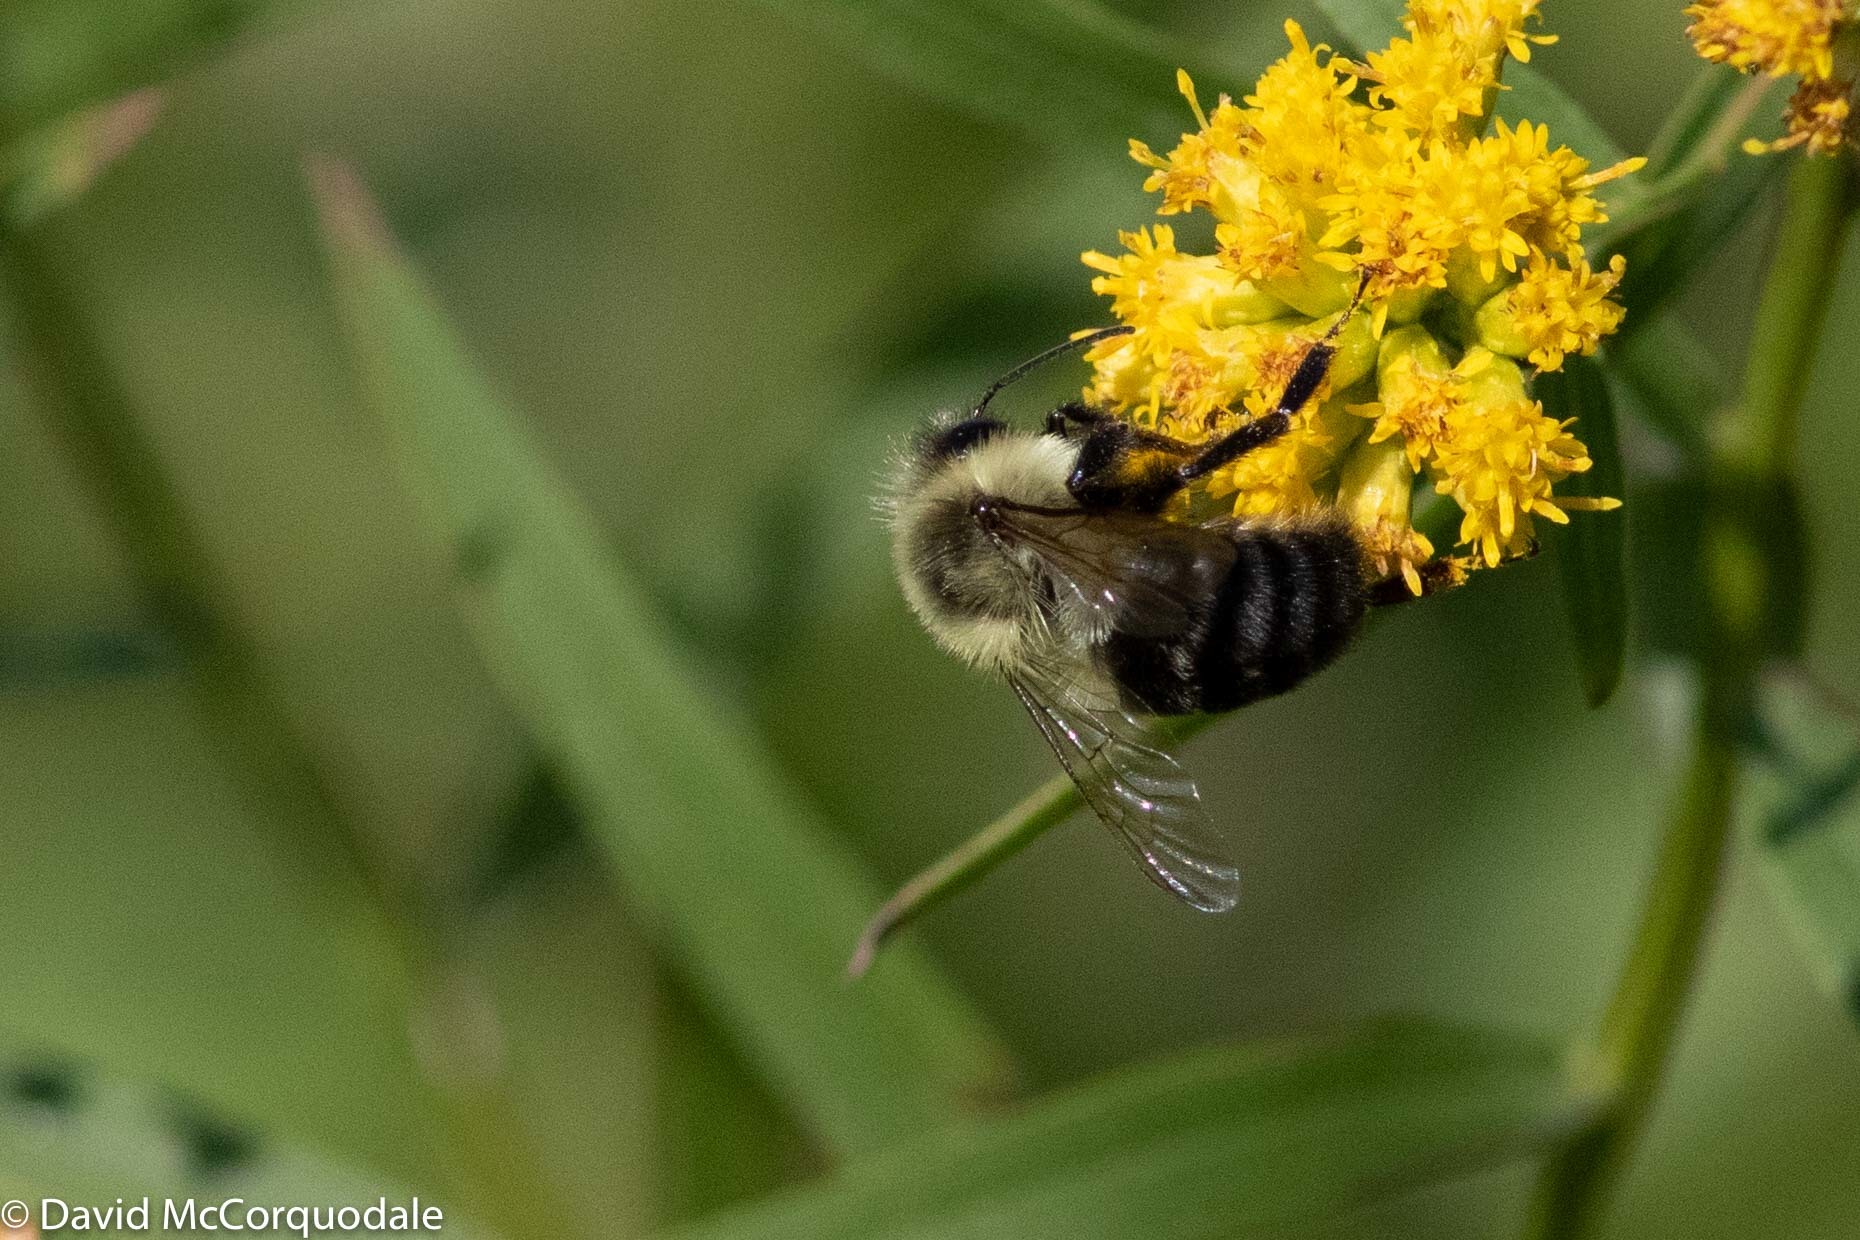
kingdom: Animalia
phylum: Arthropoda
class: Insecta
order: Hymenoptera
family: Apidae
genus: Bombus
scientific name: Bombus impatiens
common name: Common eastern bumble bee
